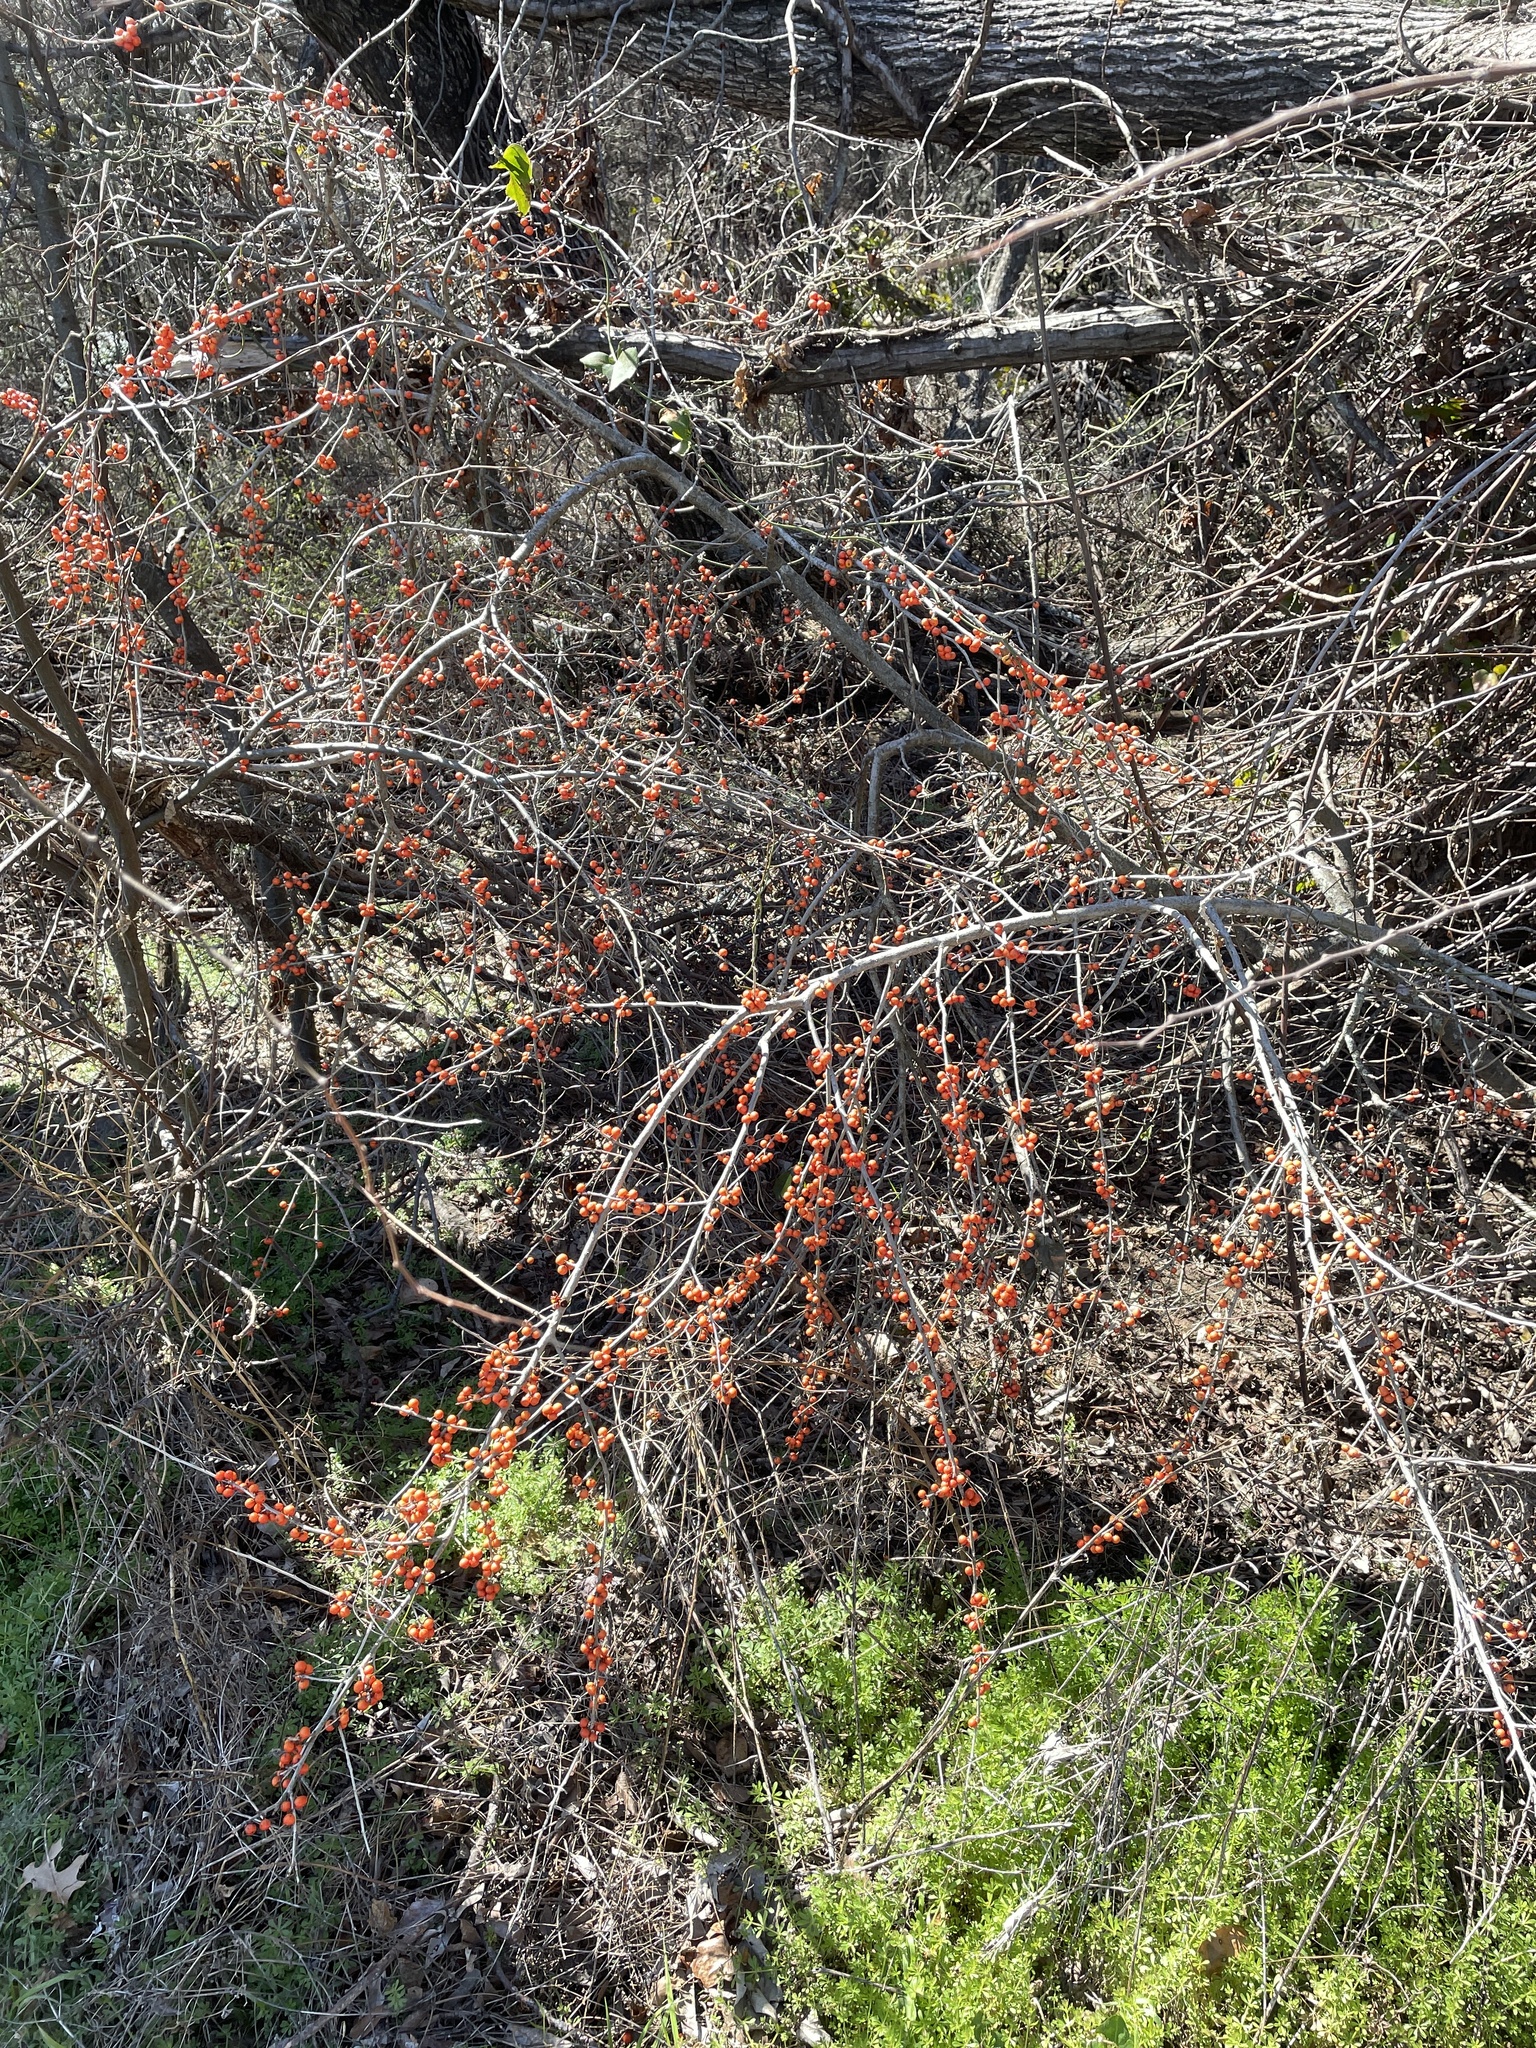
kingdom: Plantae
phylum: Tracheophyta
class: Magnoliopsida
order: Aquifoliales
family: Aquifoliaceae
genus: Ilex
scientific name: Ilex decidua
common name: Possum-haw
